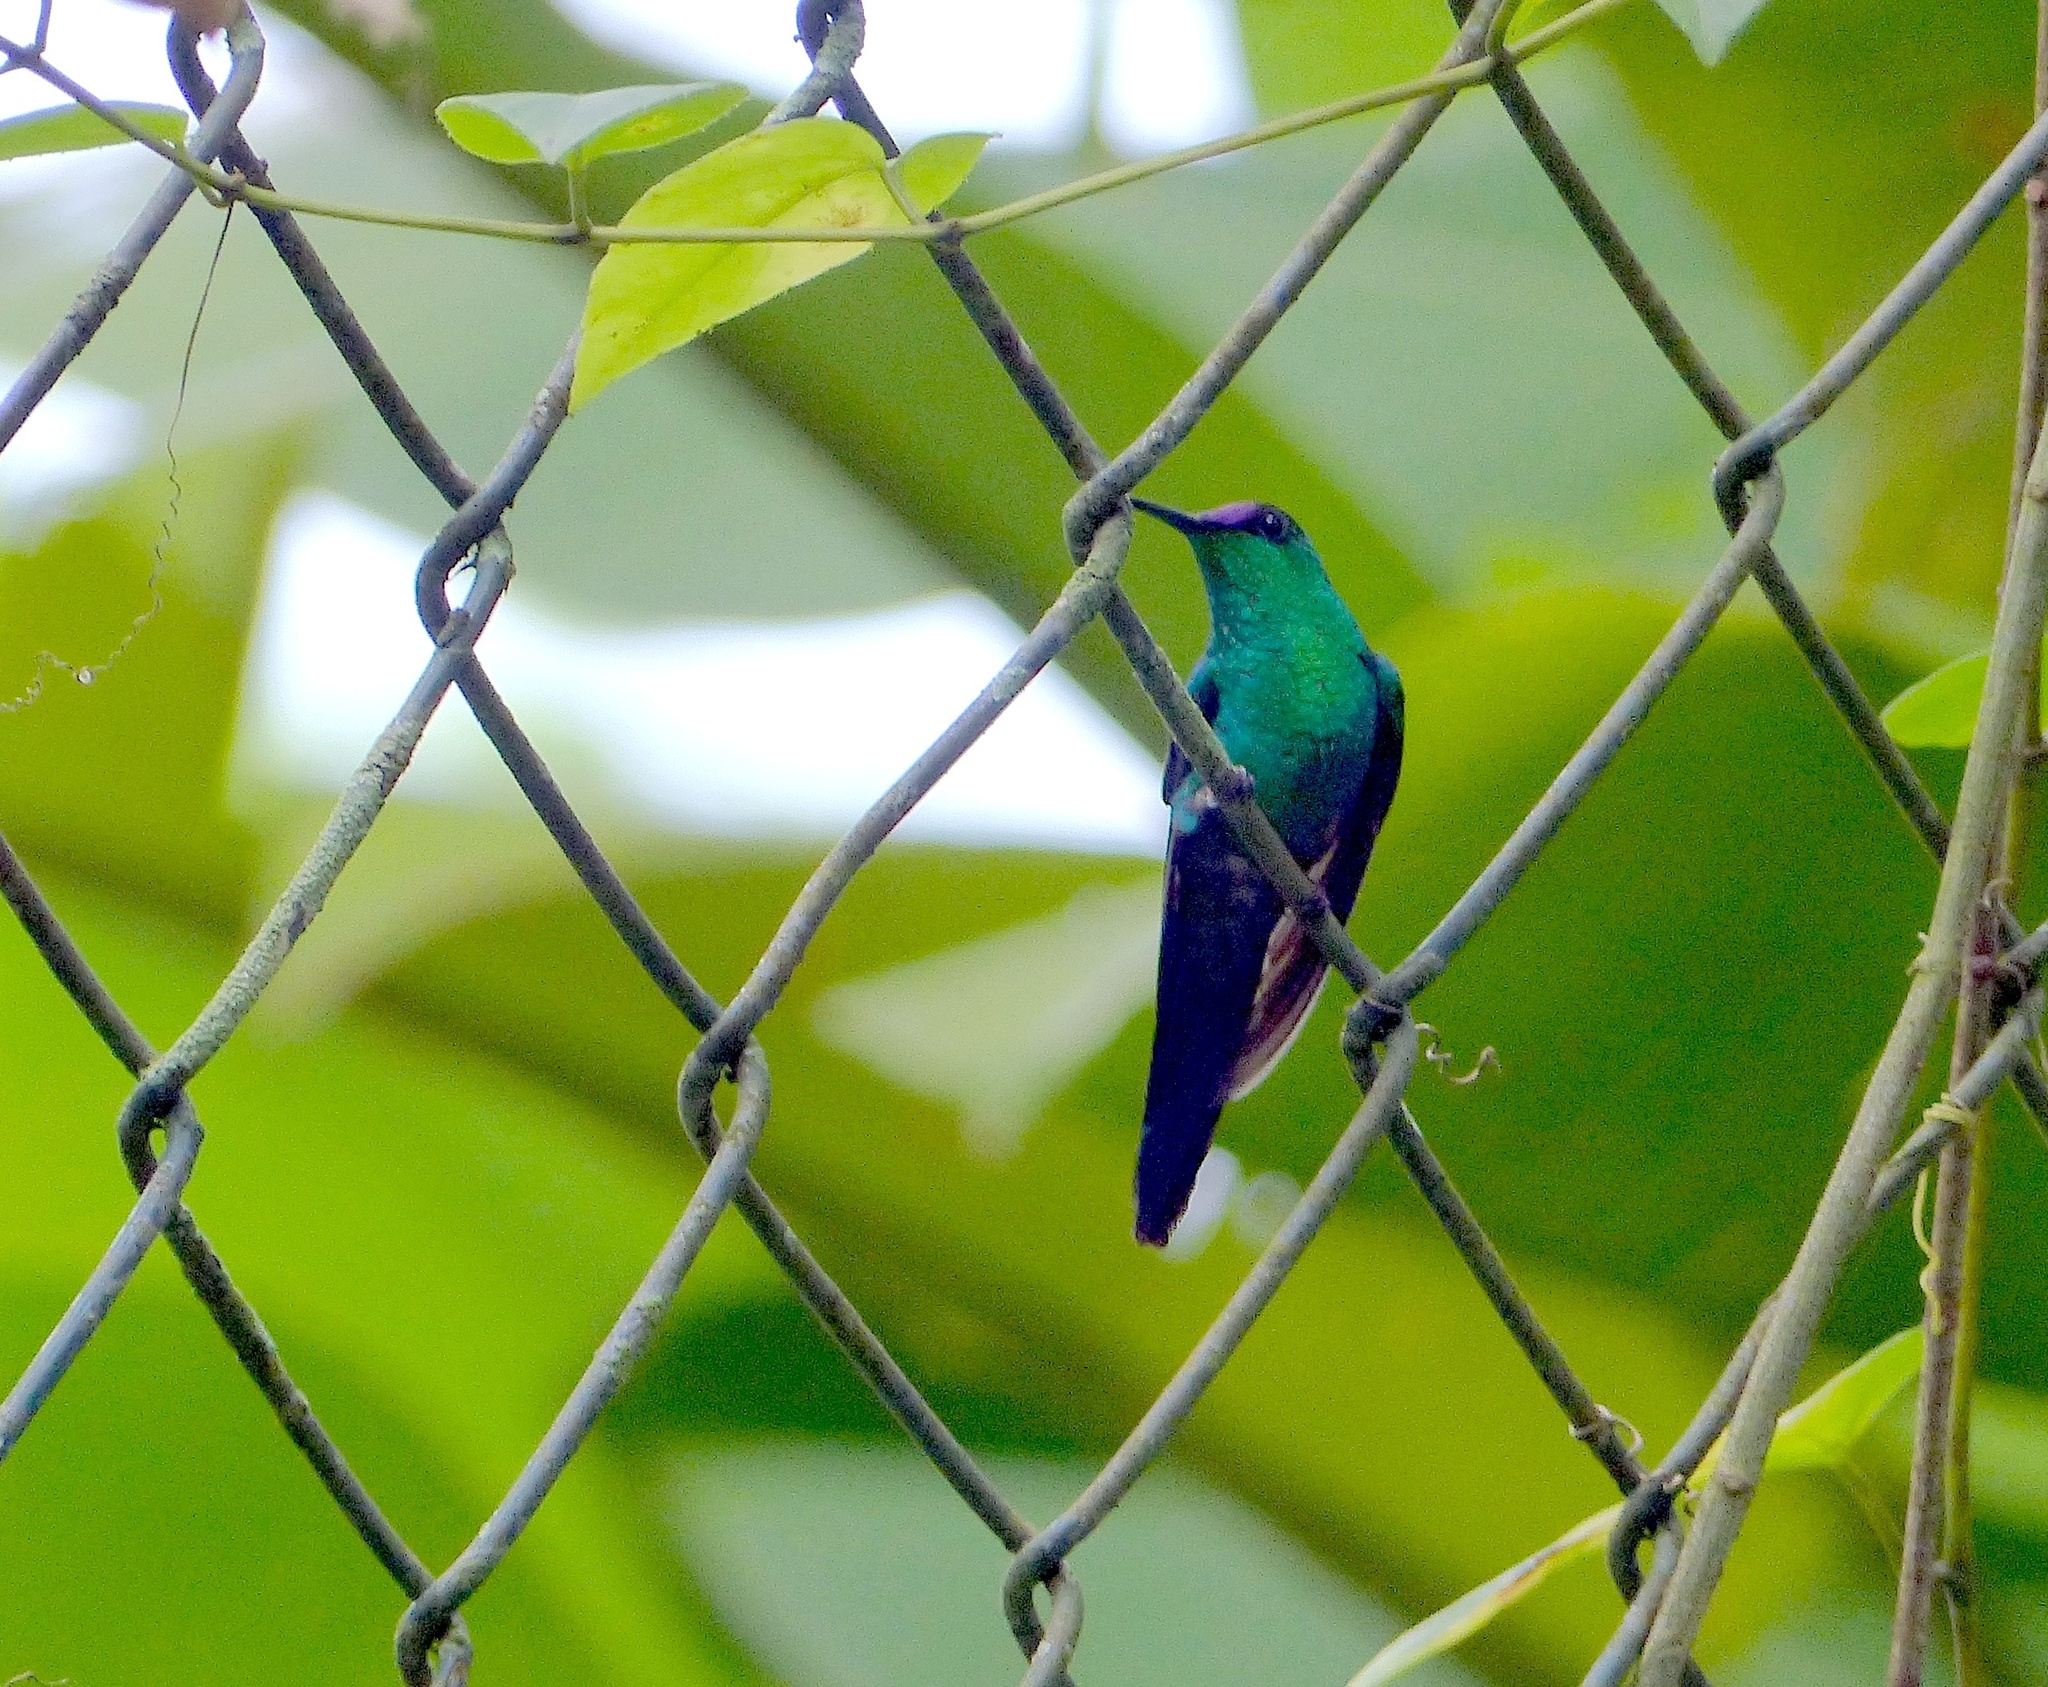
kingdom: Animalia
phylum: Chordata
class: Aves
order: Apodiformes
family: Trochilidae
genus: Thalurania
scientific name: Thalurania glaucopis
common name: Violet-capped woodnymph
